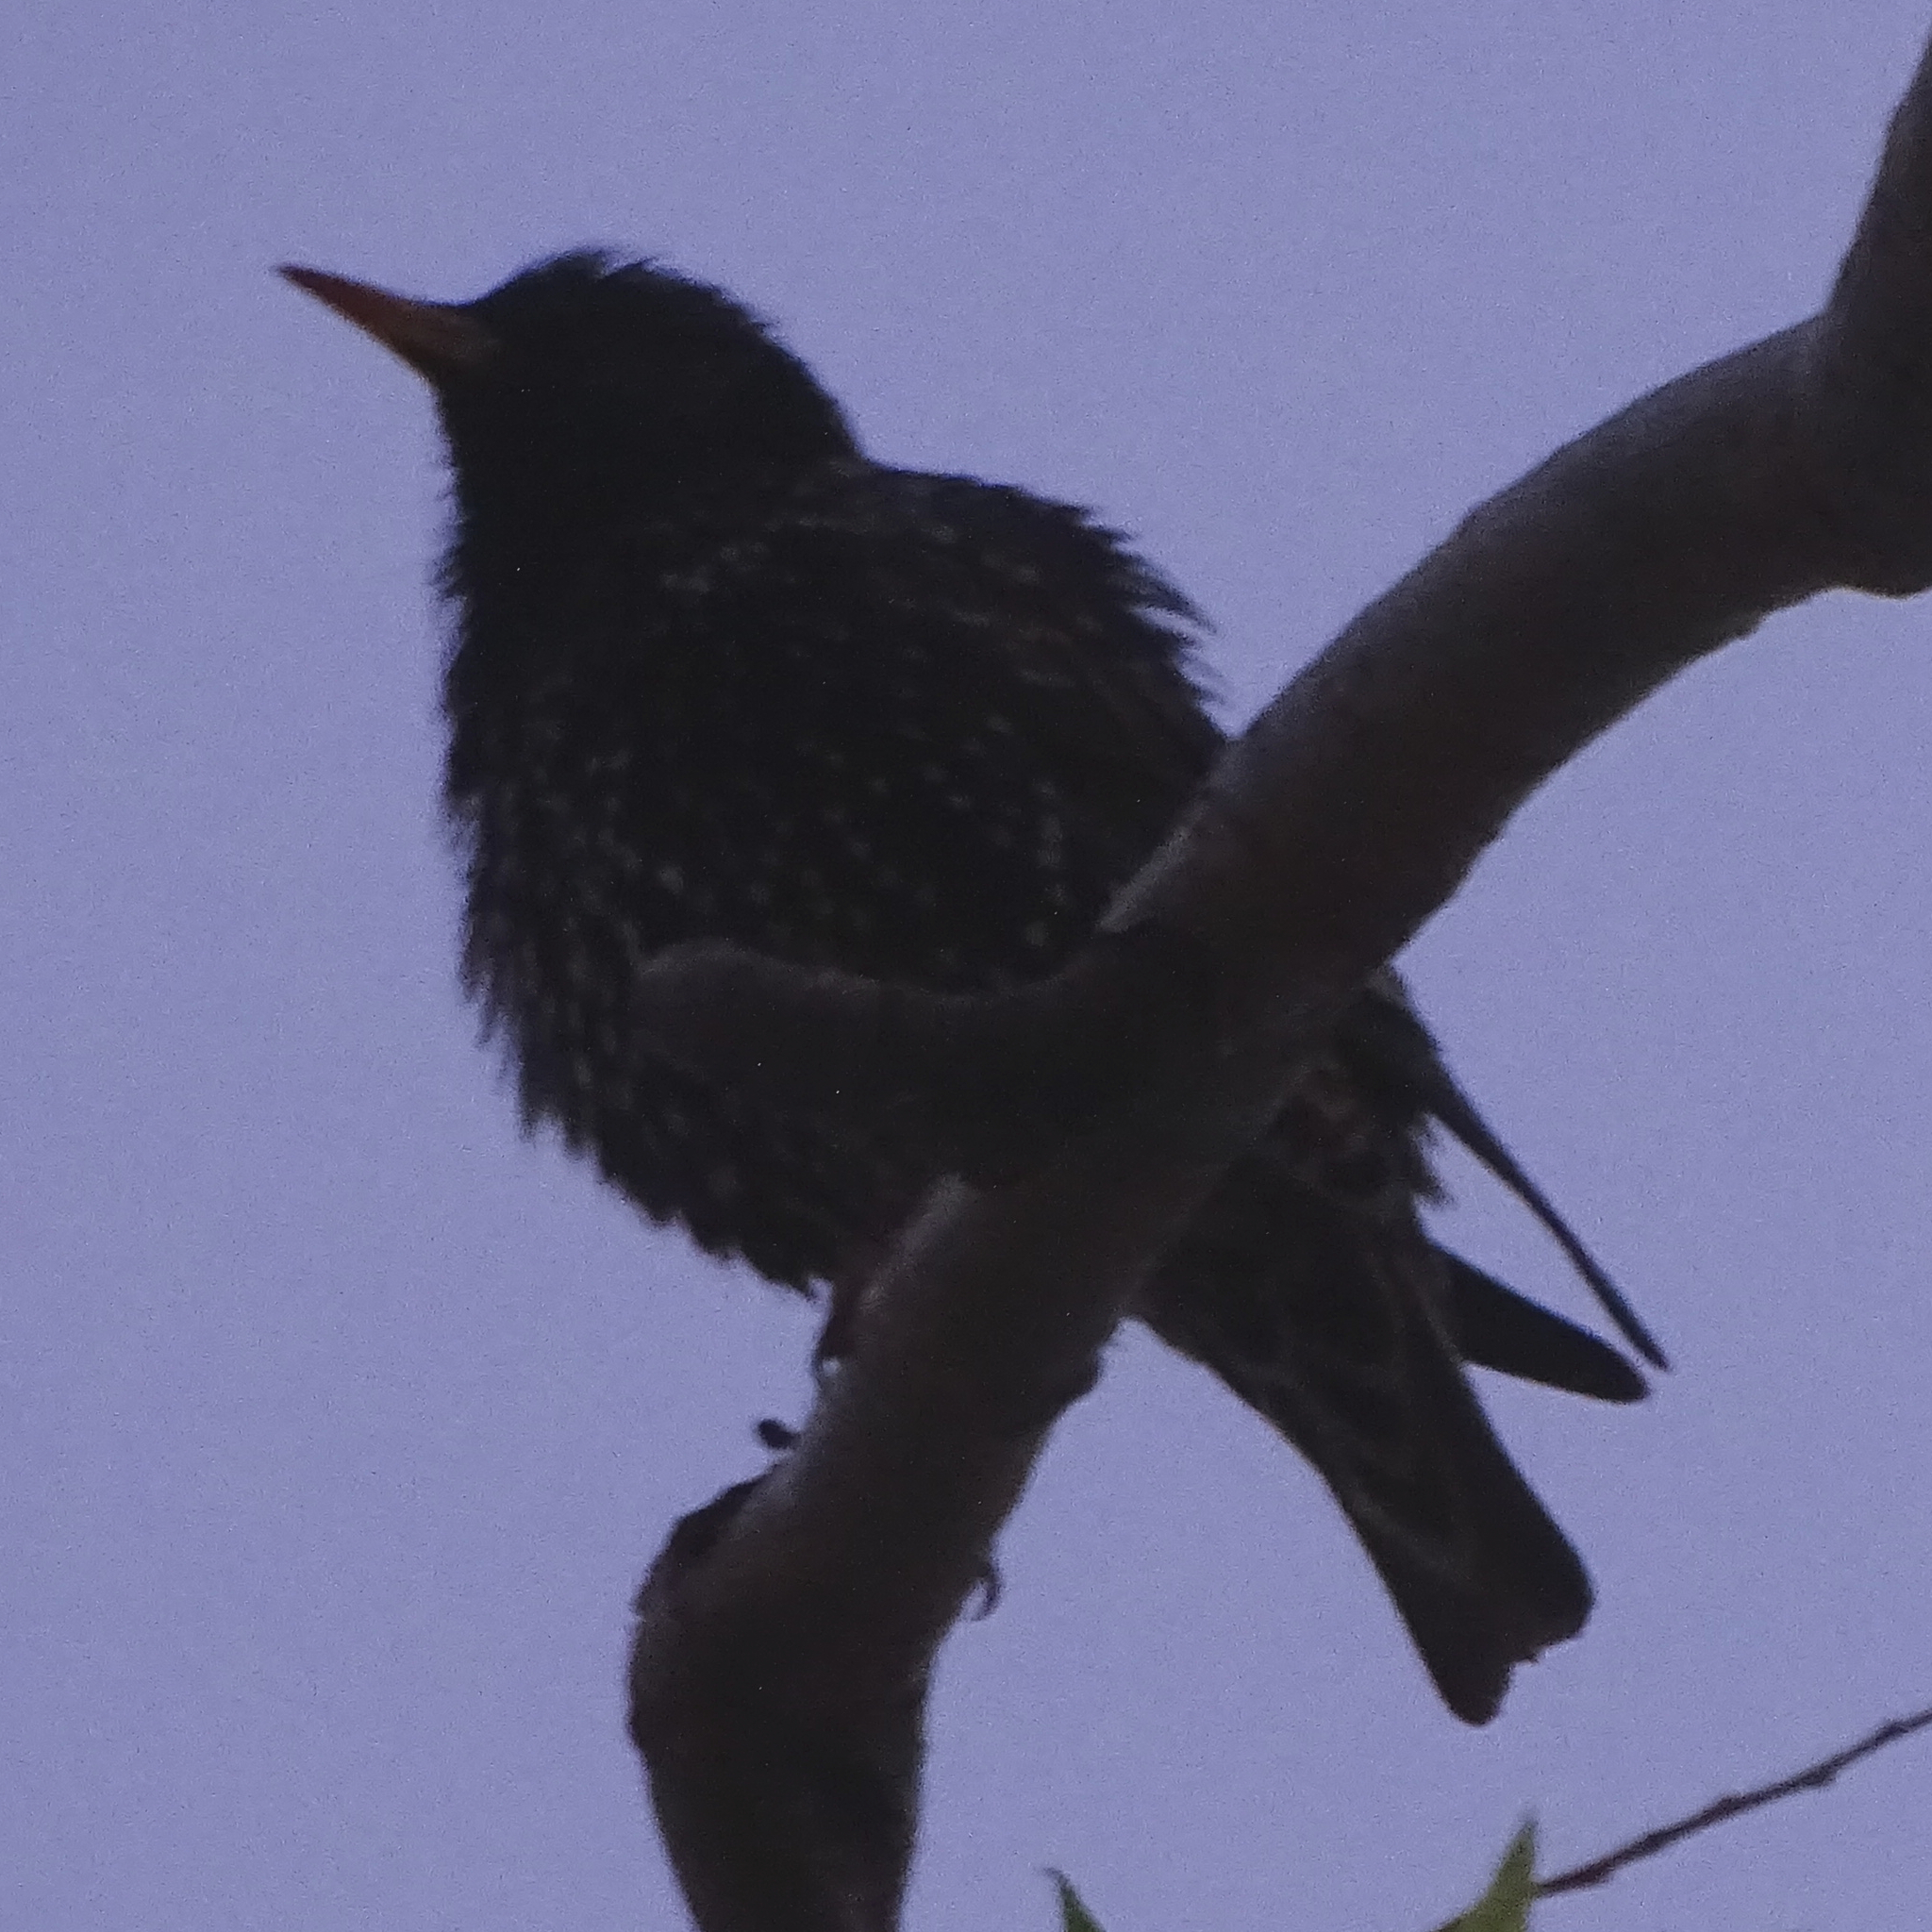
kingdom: Animalia
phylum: Chordata
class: Aves
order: Passeriformes
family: Sturnidae
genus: Sturnus
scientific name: Sturnus vulgaris
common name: Common starling
